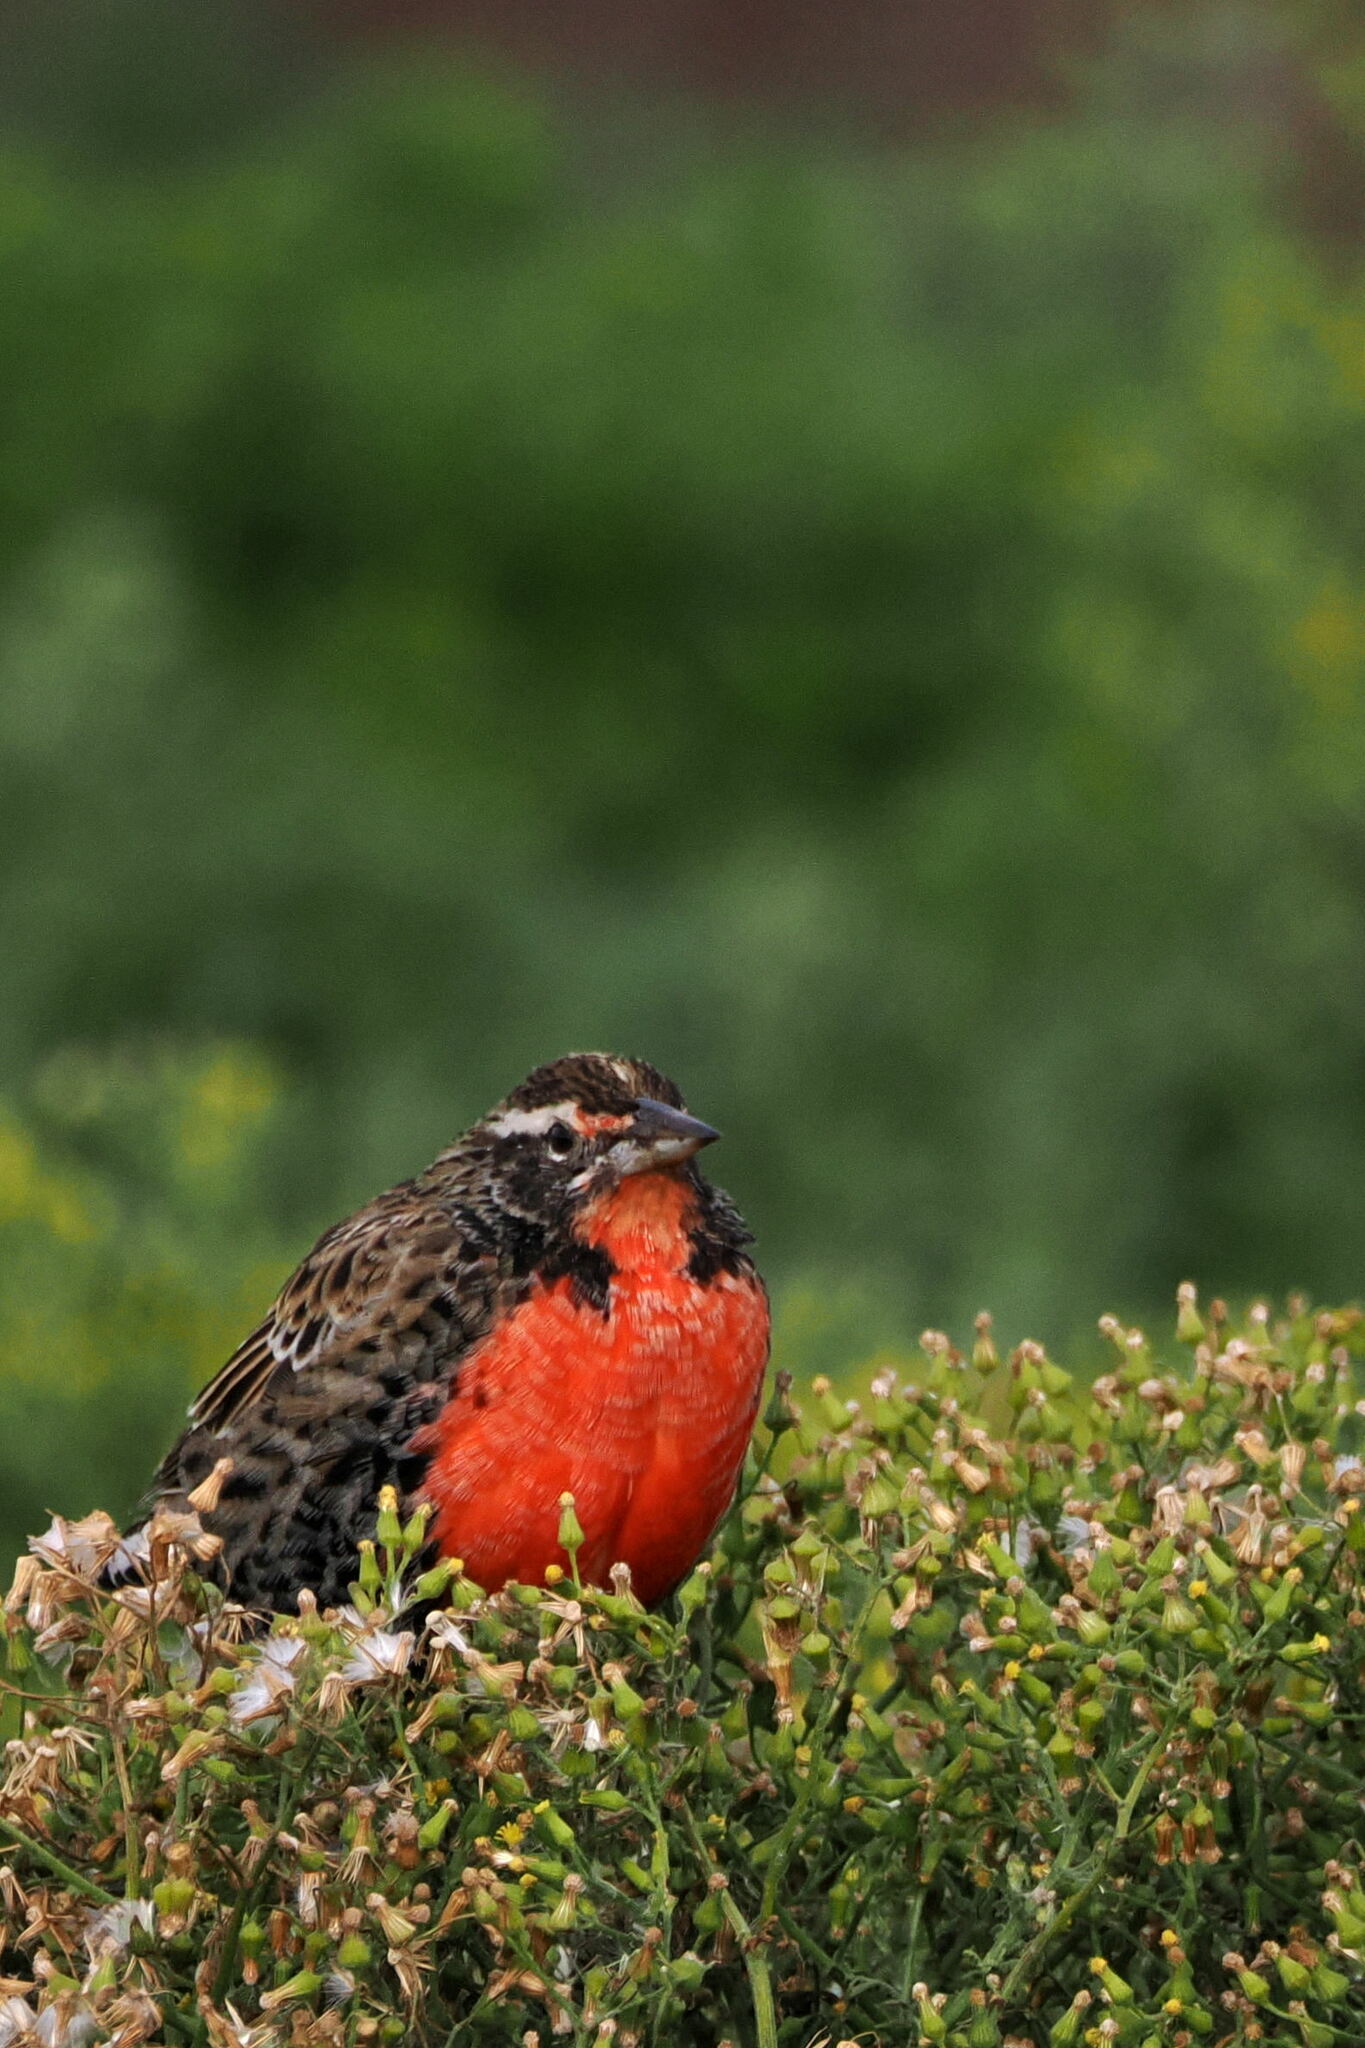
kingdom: Animalia
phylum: Chordata
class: Aves
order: Passeriformes
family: Icteridae
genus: Sturnella
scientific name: Sturnella loyca
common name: Long-tailed meadowlark
